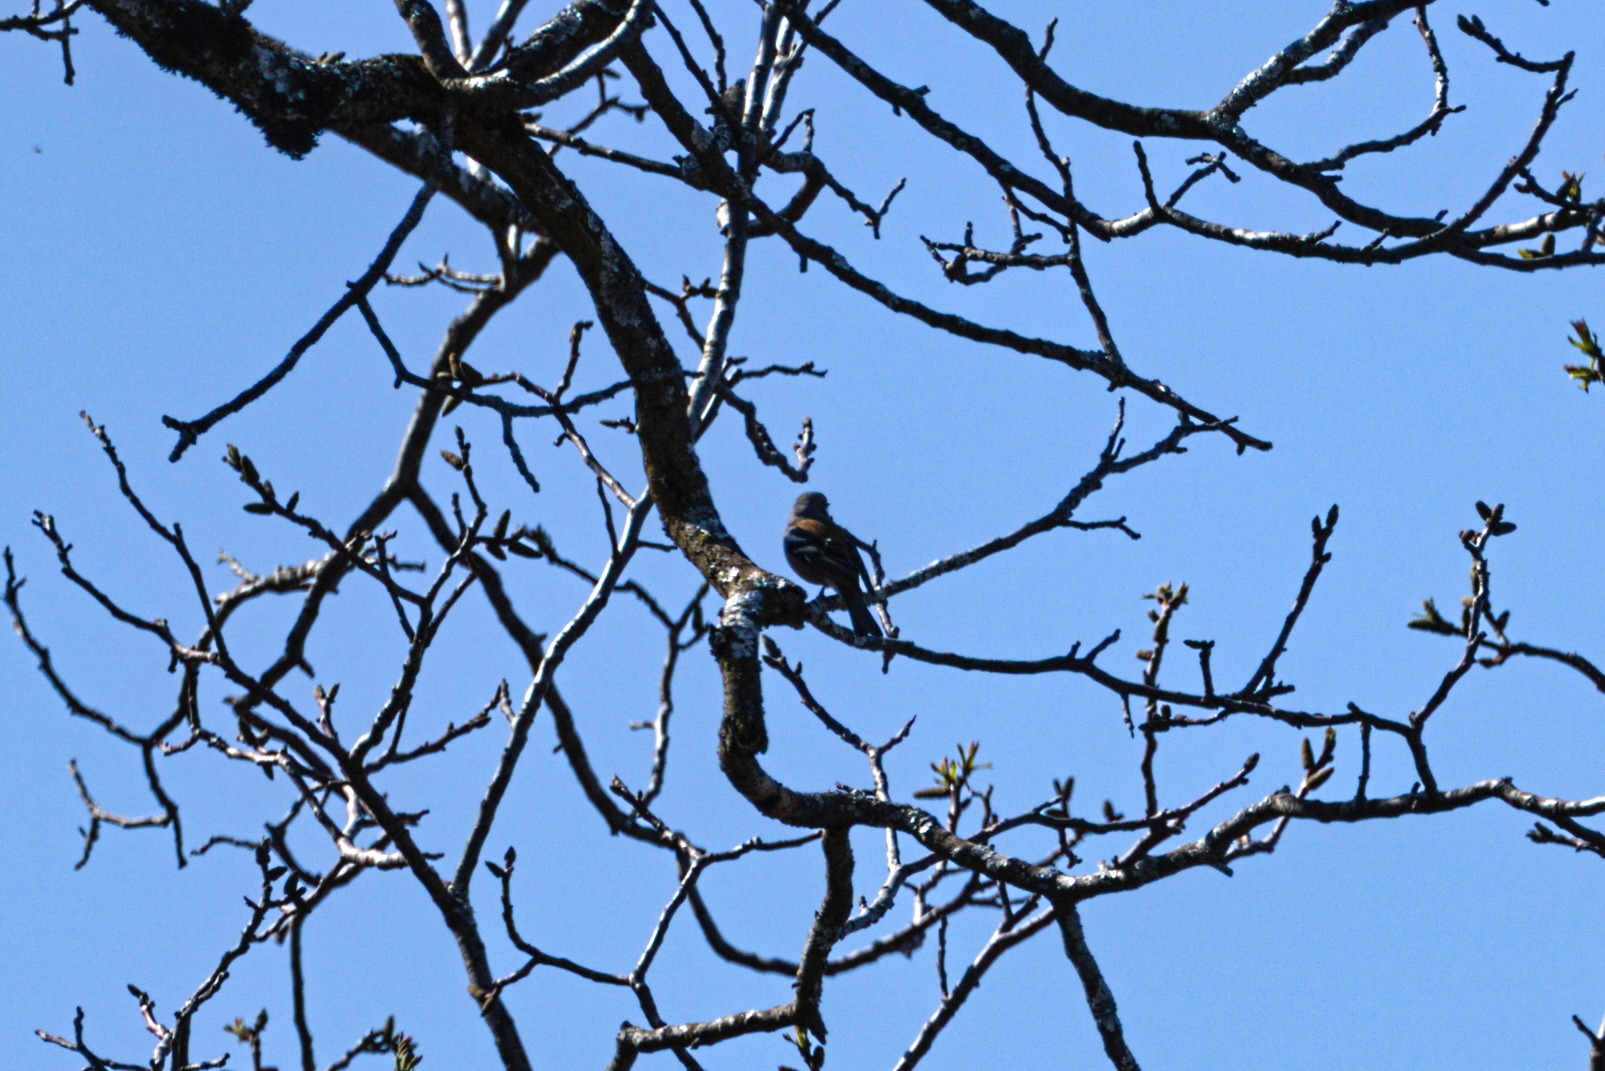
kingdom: Animalia
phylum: Chordata
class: Aves
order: Passeriformes
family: Fringillidae
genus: Fringilla
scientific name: Fringilla coelebs
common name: Common chaffinch
